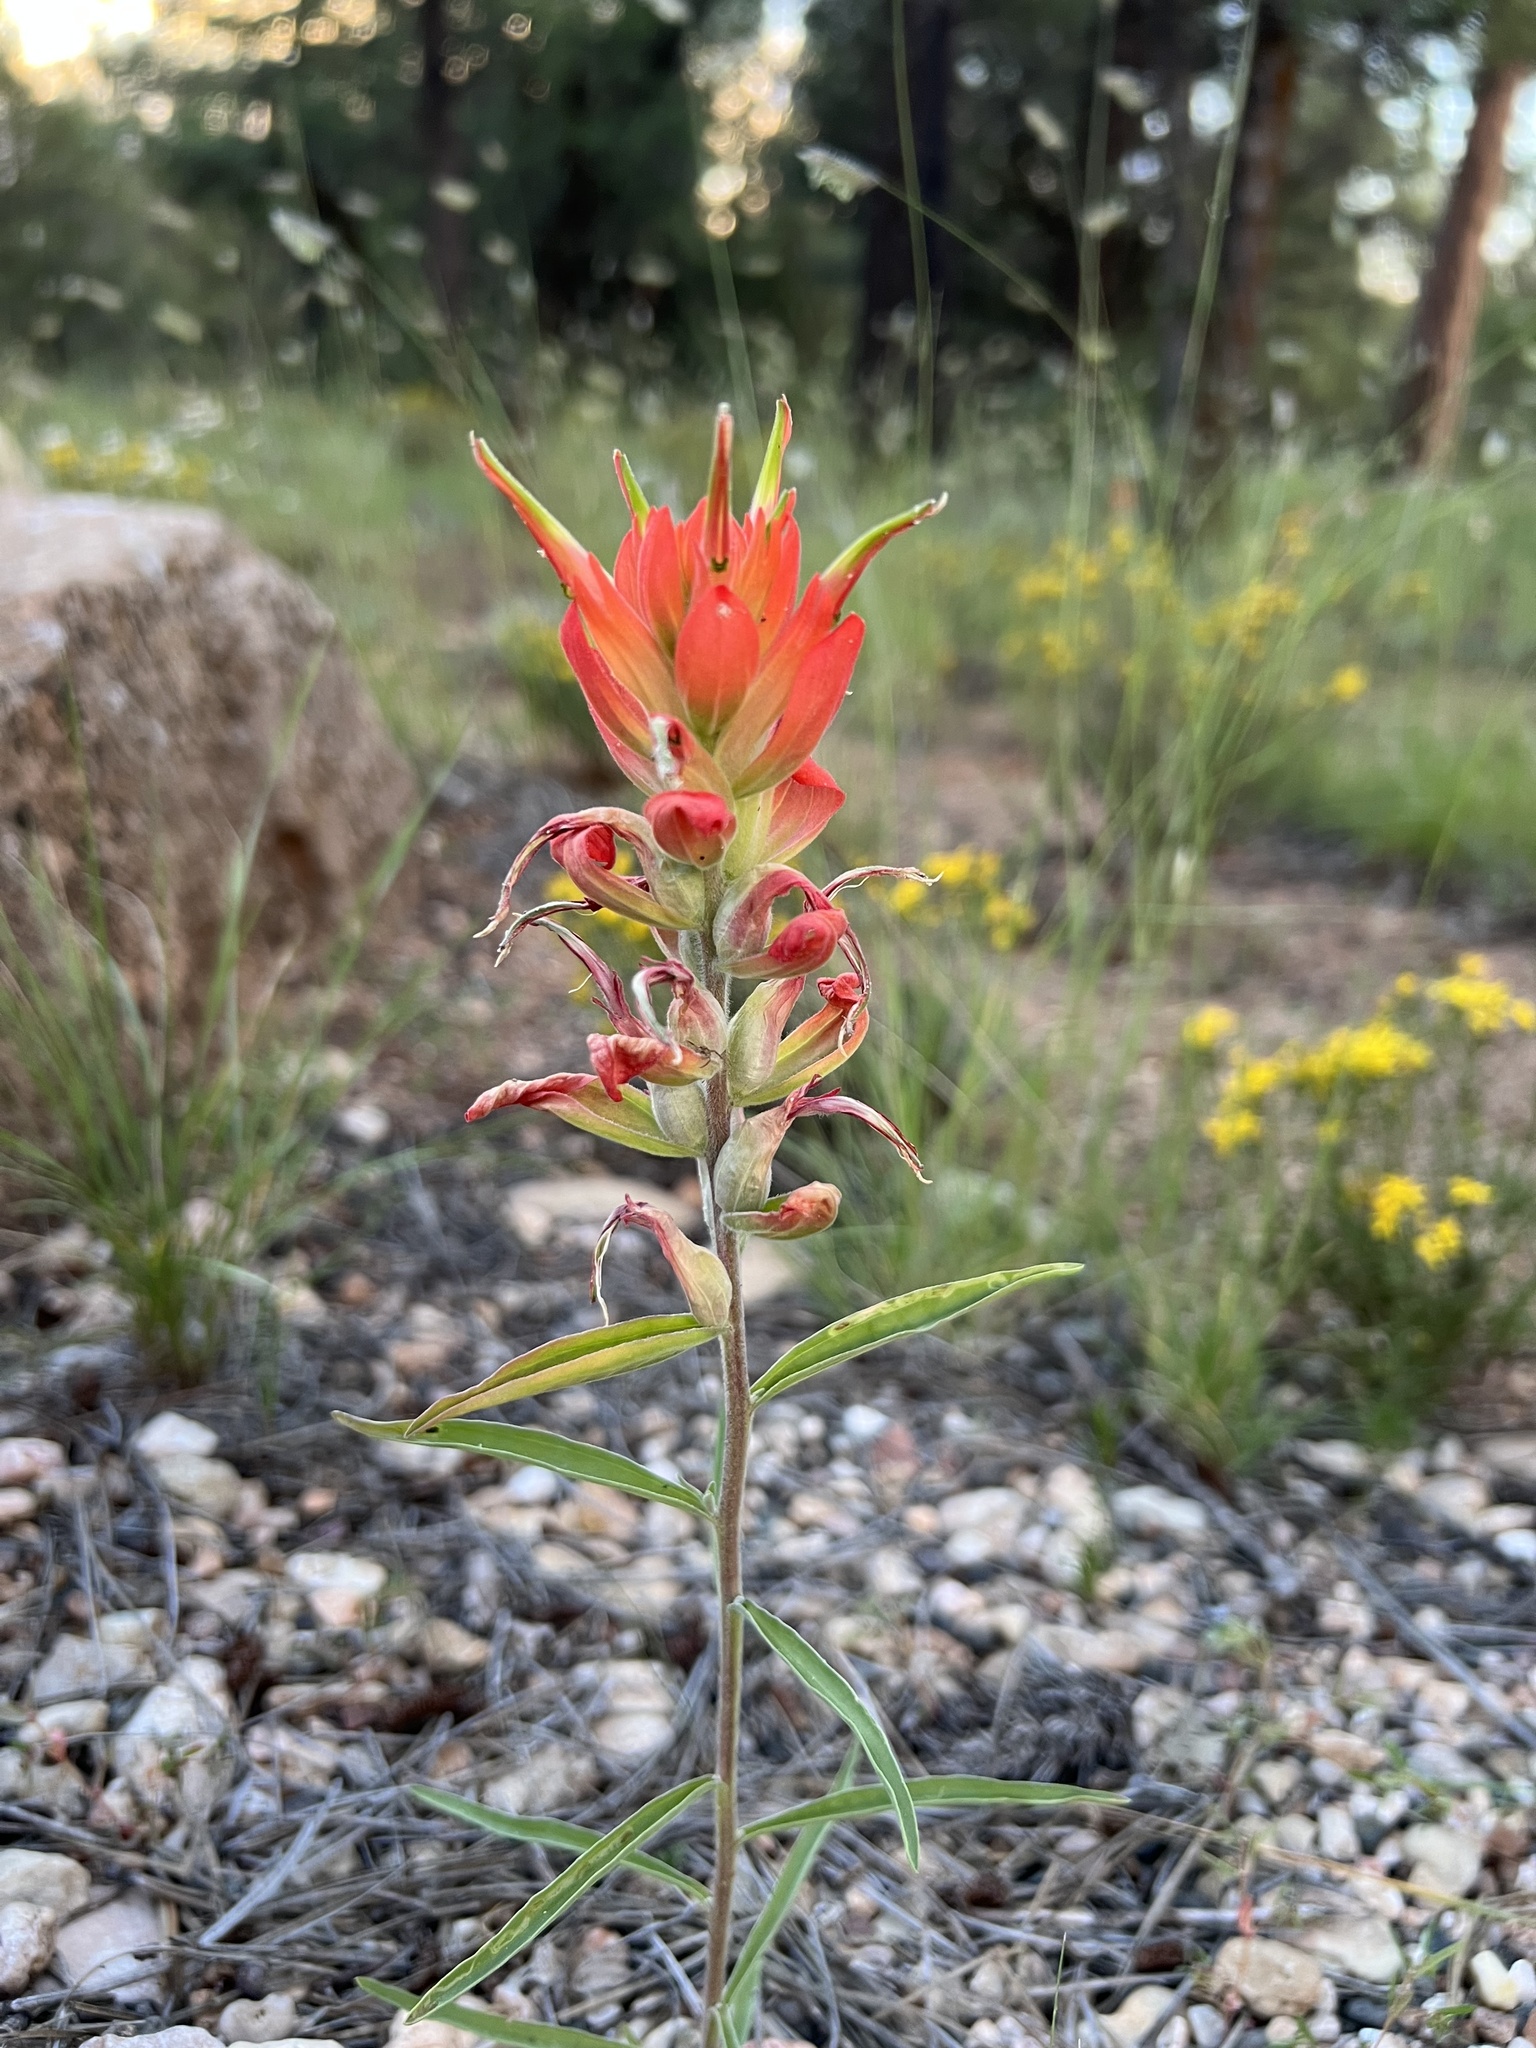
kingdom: Plantae
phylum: Tracheophyta
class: Magnoliopsida
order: Lamiales
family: Orobanchaceae
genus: Castilleja
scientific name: Castilleja integra
